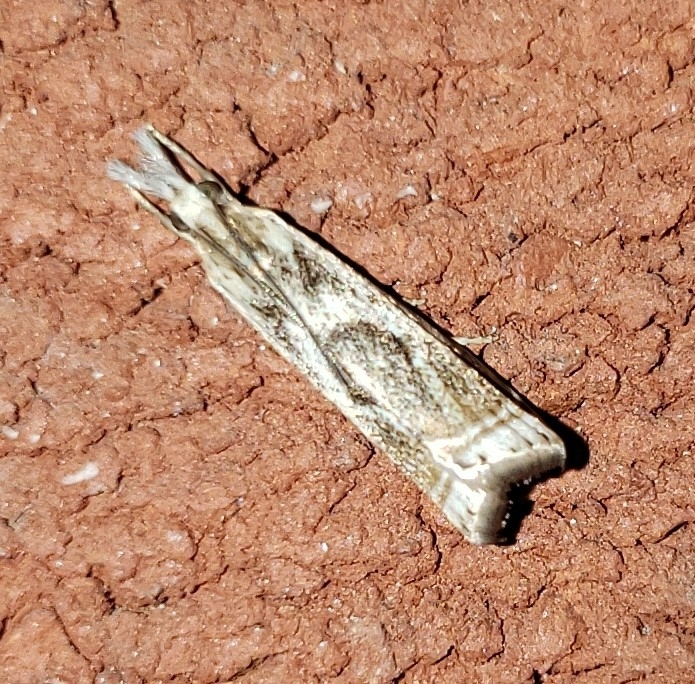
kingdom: Animalia
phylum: Arthropoda
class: Insecta
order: Lepidoptera
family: Crambidae
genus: Microcrambus
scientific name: Microcrambus elegans
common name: Elegant grass-veneer
